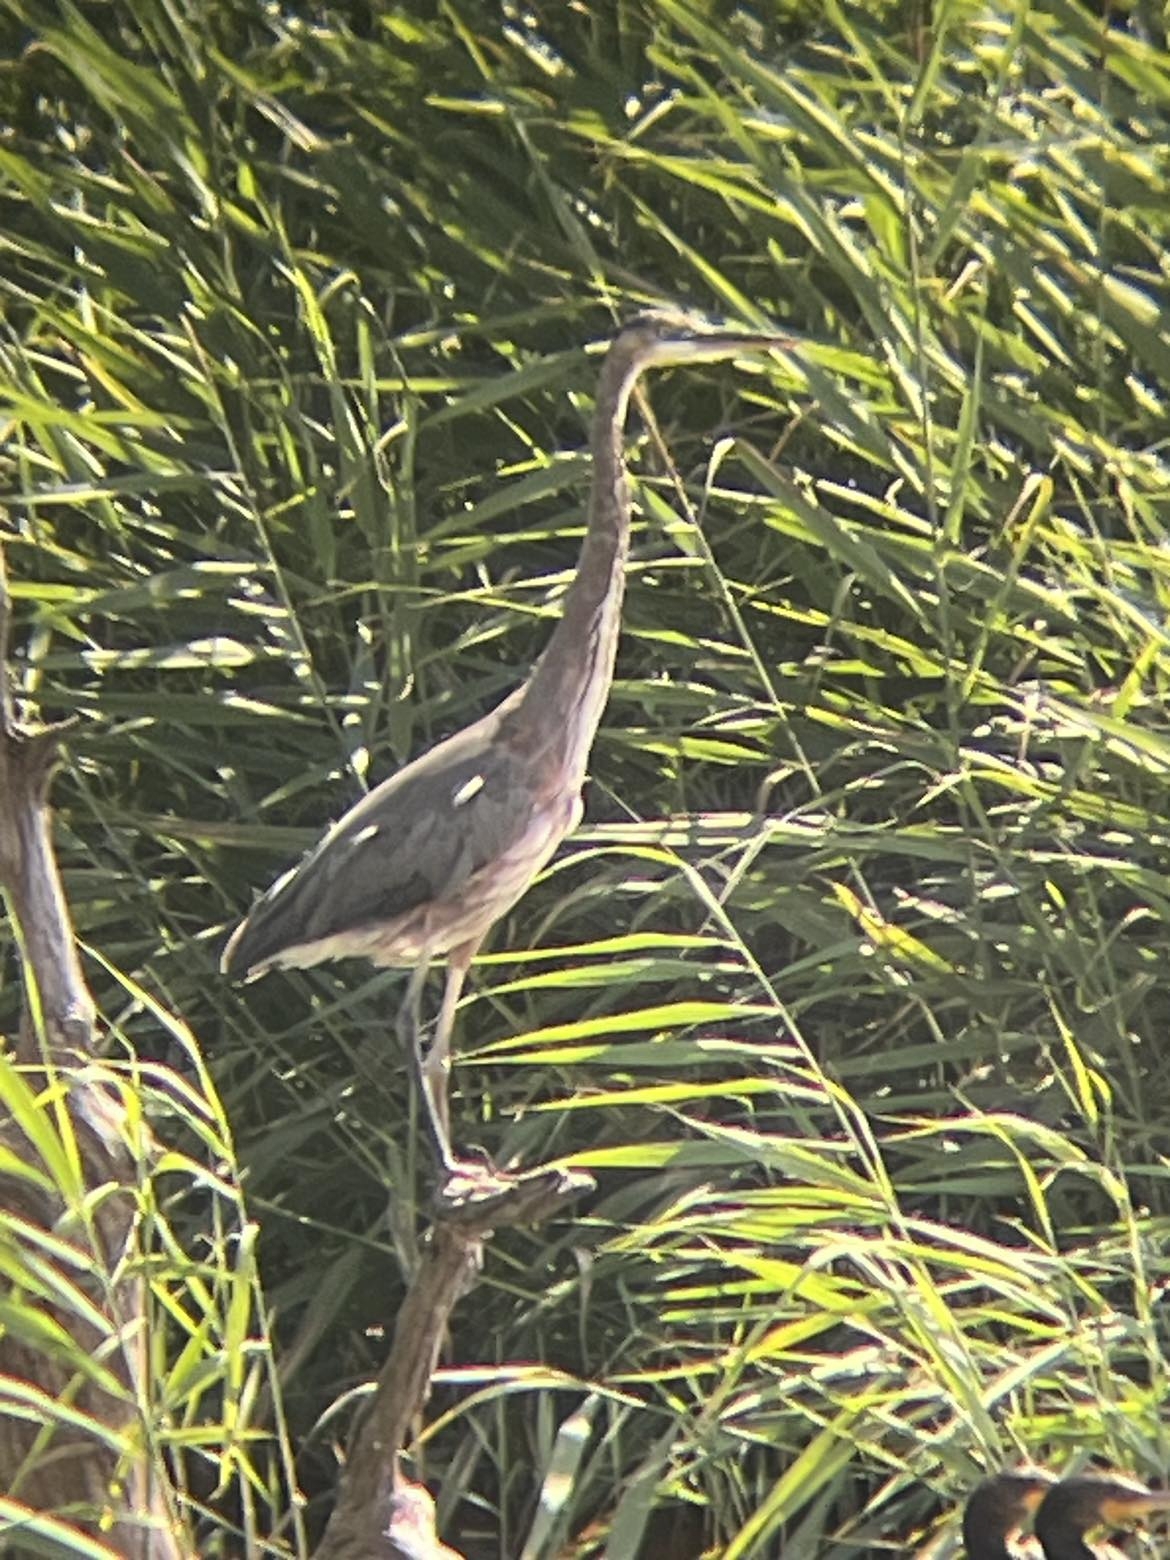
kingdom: Animalia
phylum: Chordata
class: Aves
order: Pelecaniformes
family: Ardeidae
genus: Ardea
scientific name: Ardea herodias
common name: Great blue heron
